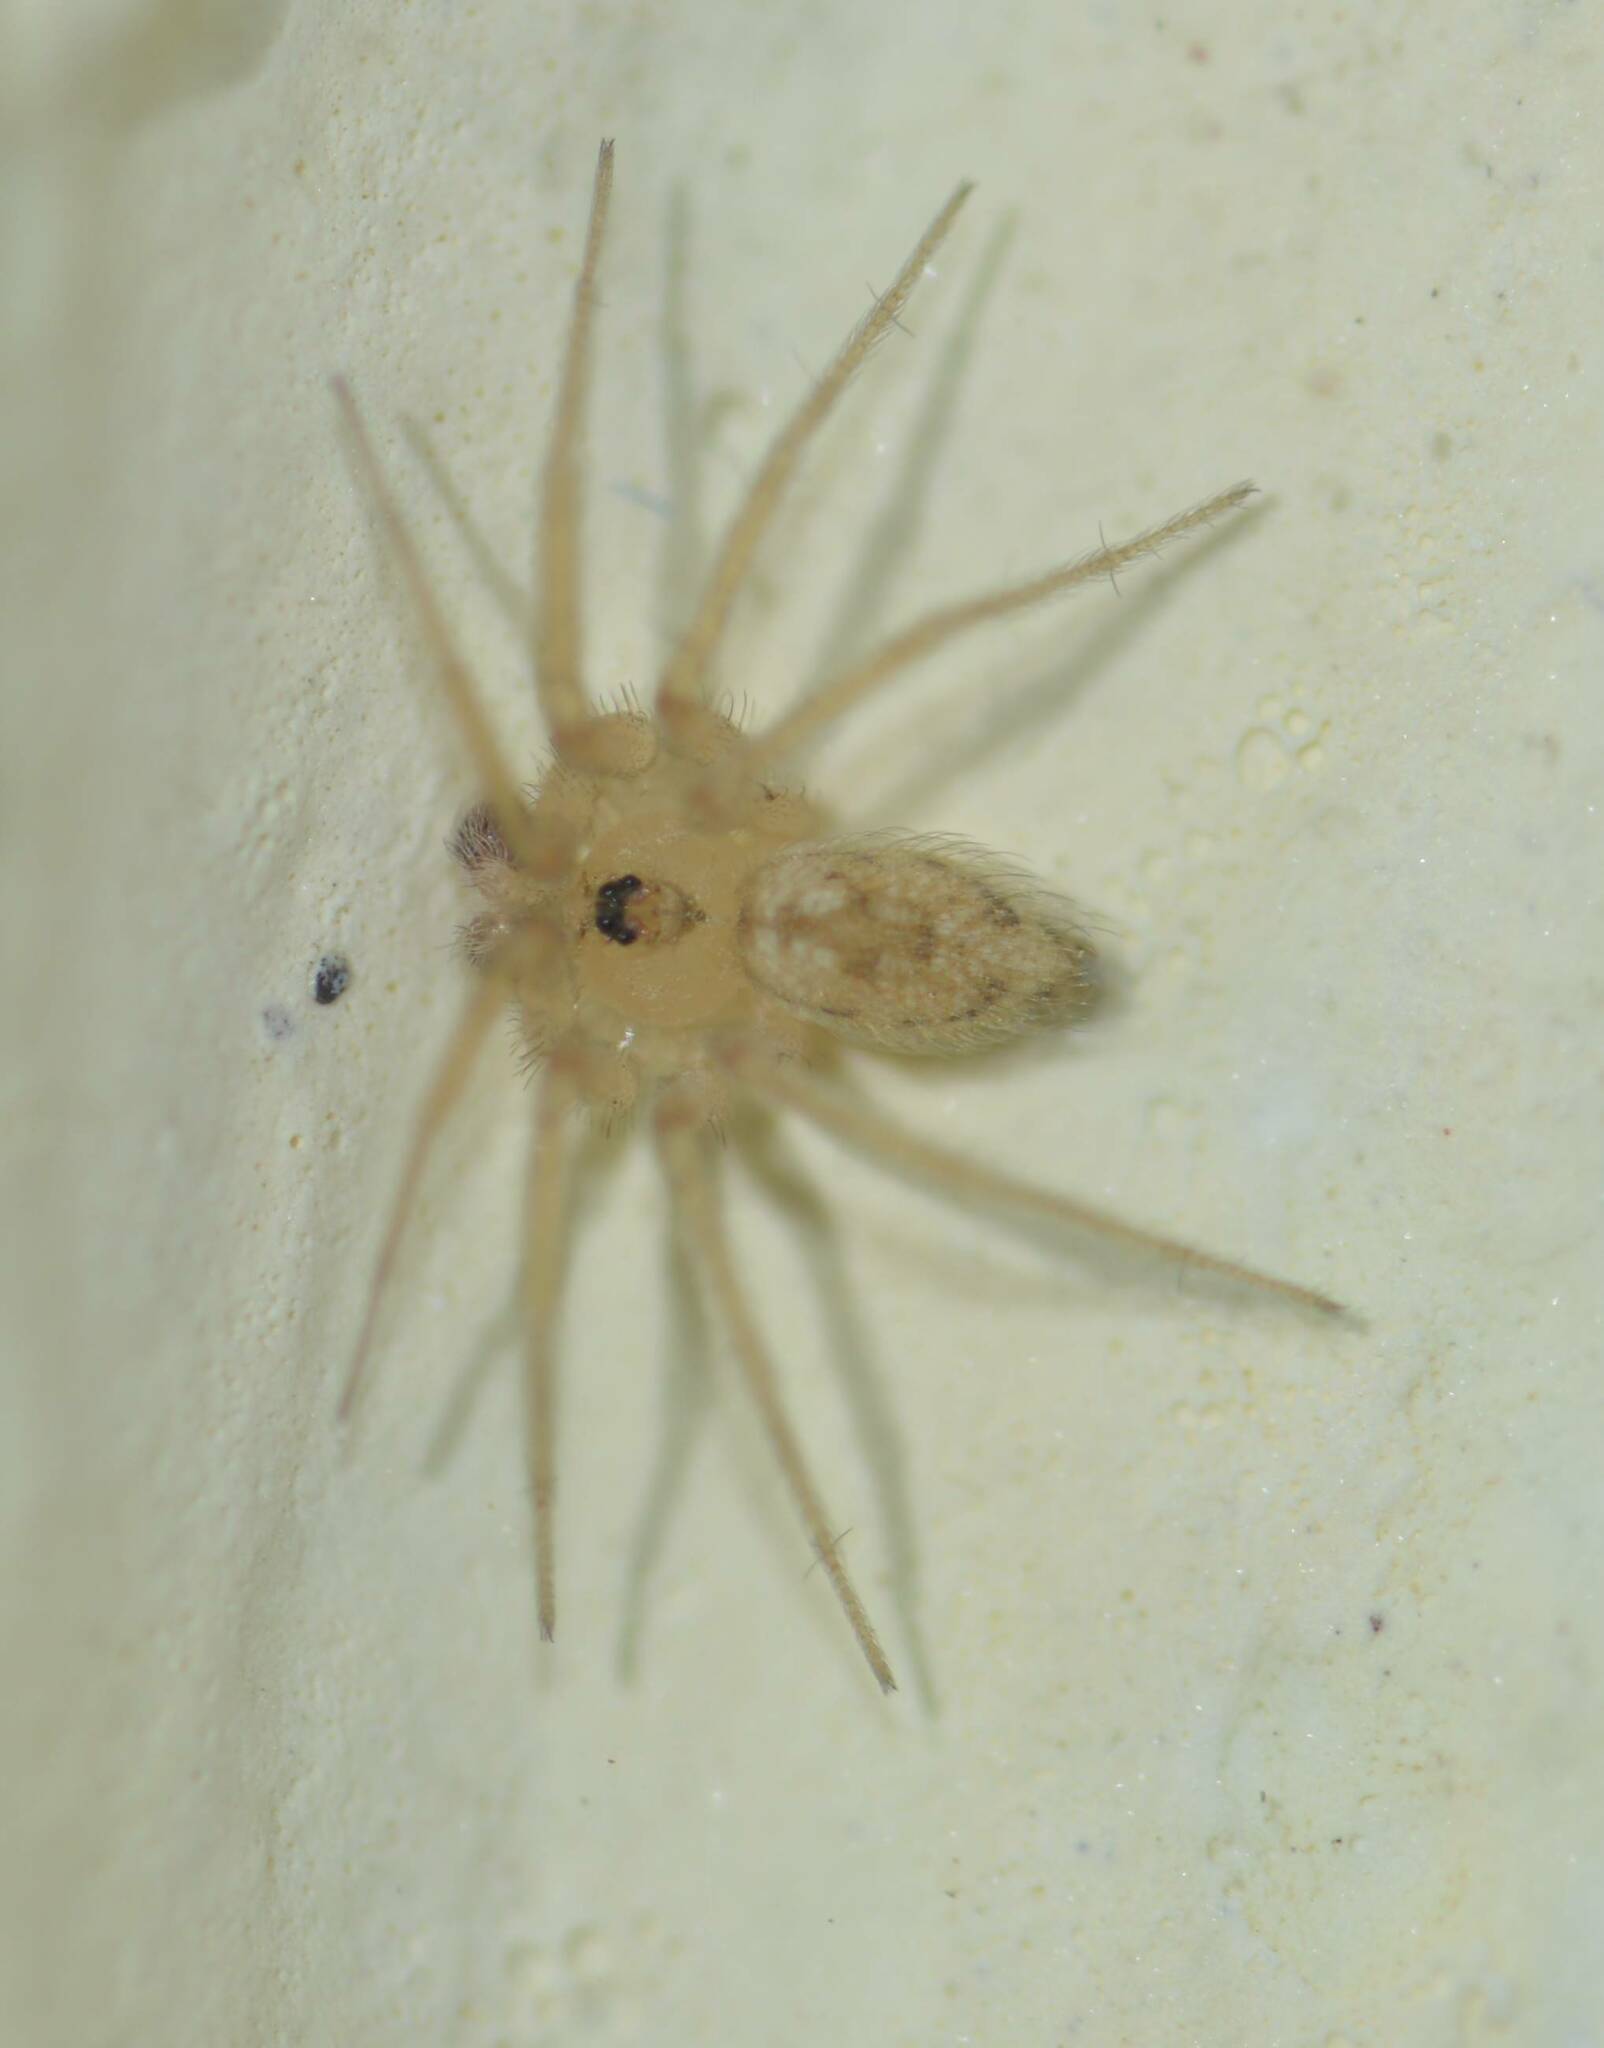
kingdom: Animalia
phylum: Arthropoda
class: Arachnida
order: Araneae
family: Oecobiidae
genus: Oecobius
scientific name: Oecobius putus
